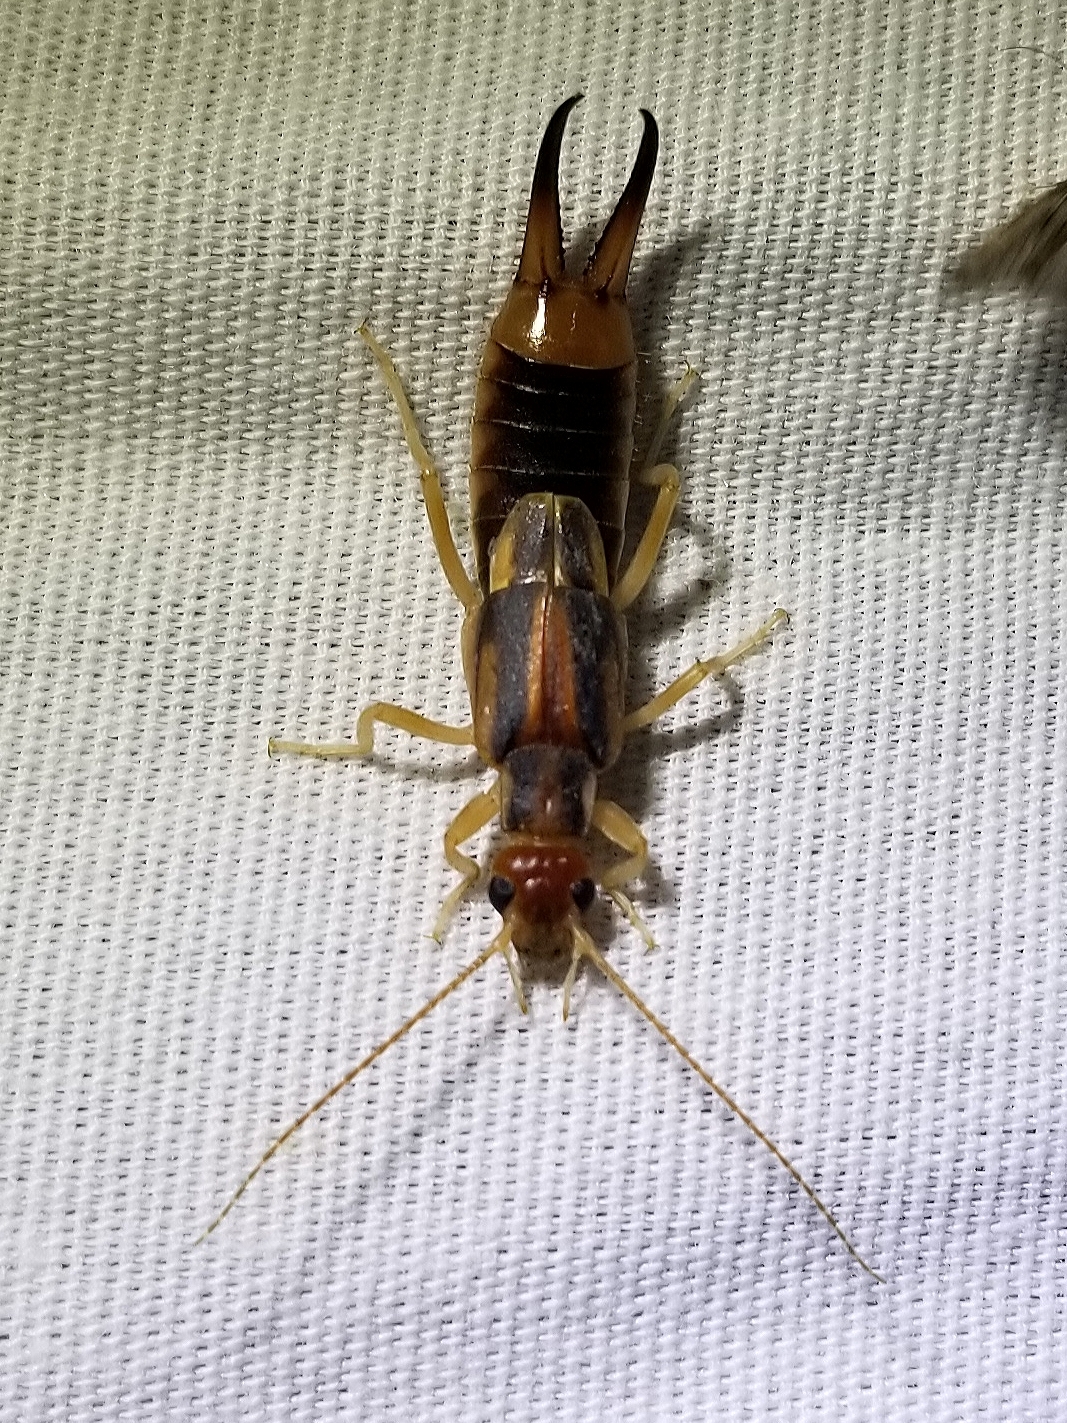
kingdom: Animalia
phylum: Arthropoda
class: Insecta
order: Dermaptera
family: Labiduridae
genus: Labidura
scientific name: Labidura riparia
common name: Striped earwig
